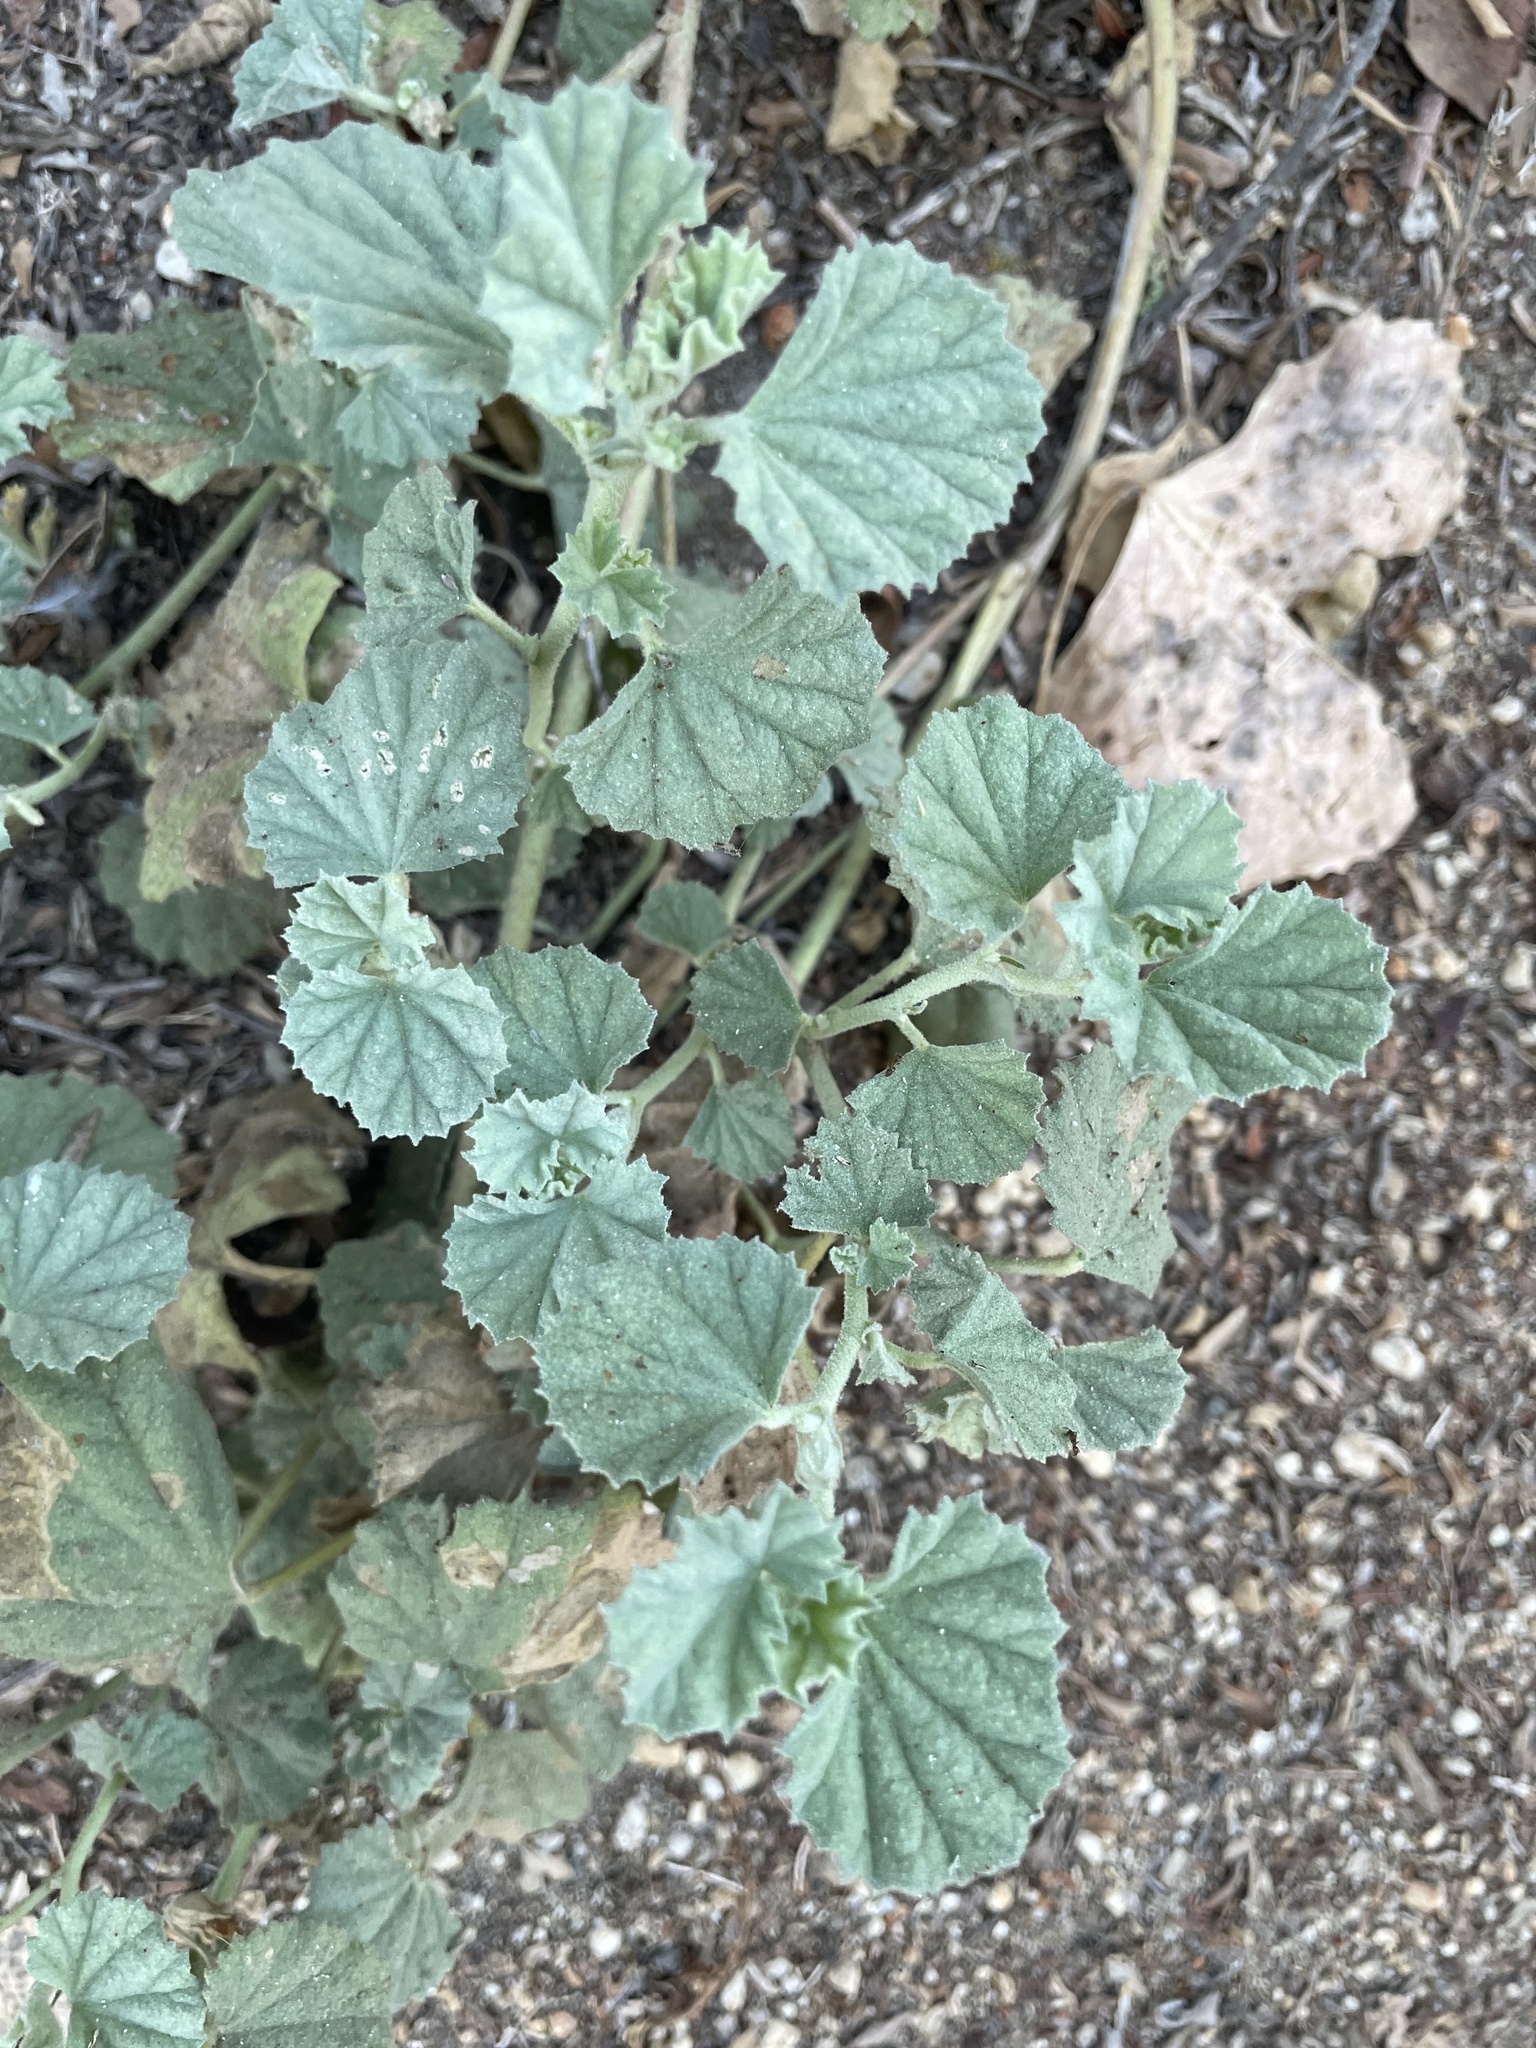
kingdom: Plantae
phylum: Tracheophyta
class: Magnoliopsida
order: Malvales
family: Malvaceae
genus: Malvella
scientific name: Malvella leprosa
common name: Alkali-mallow
